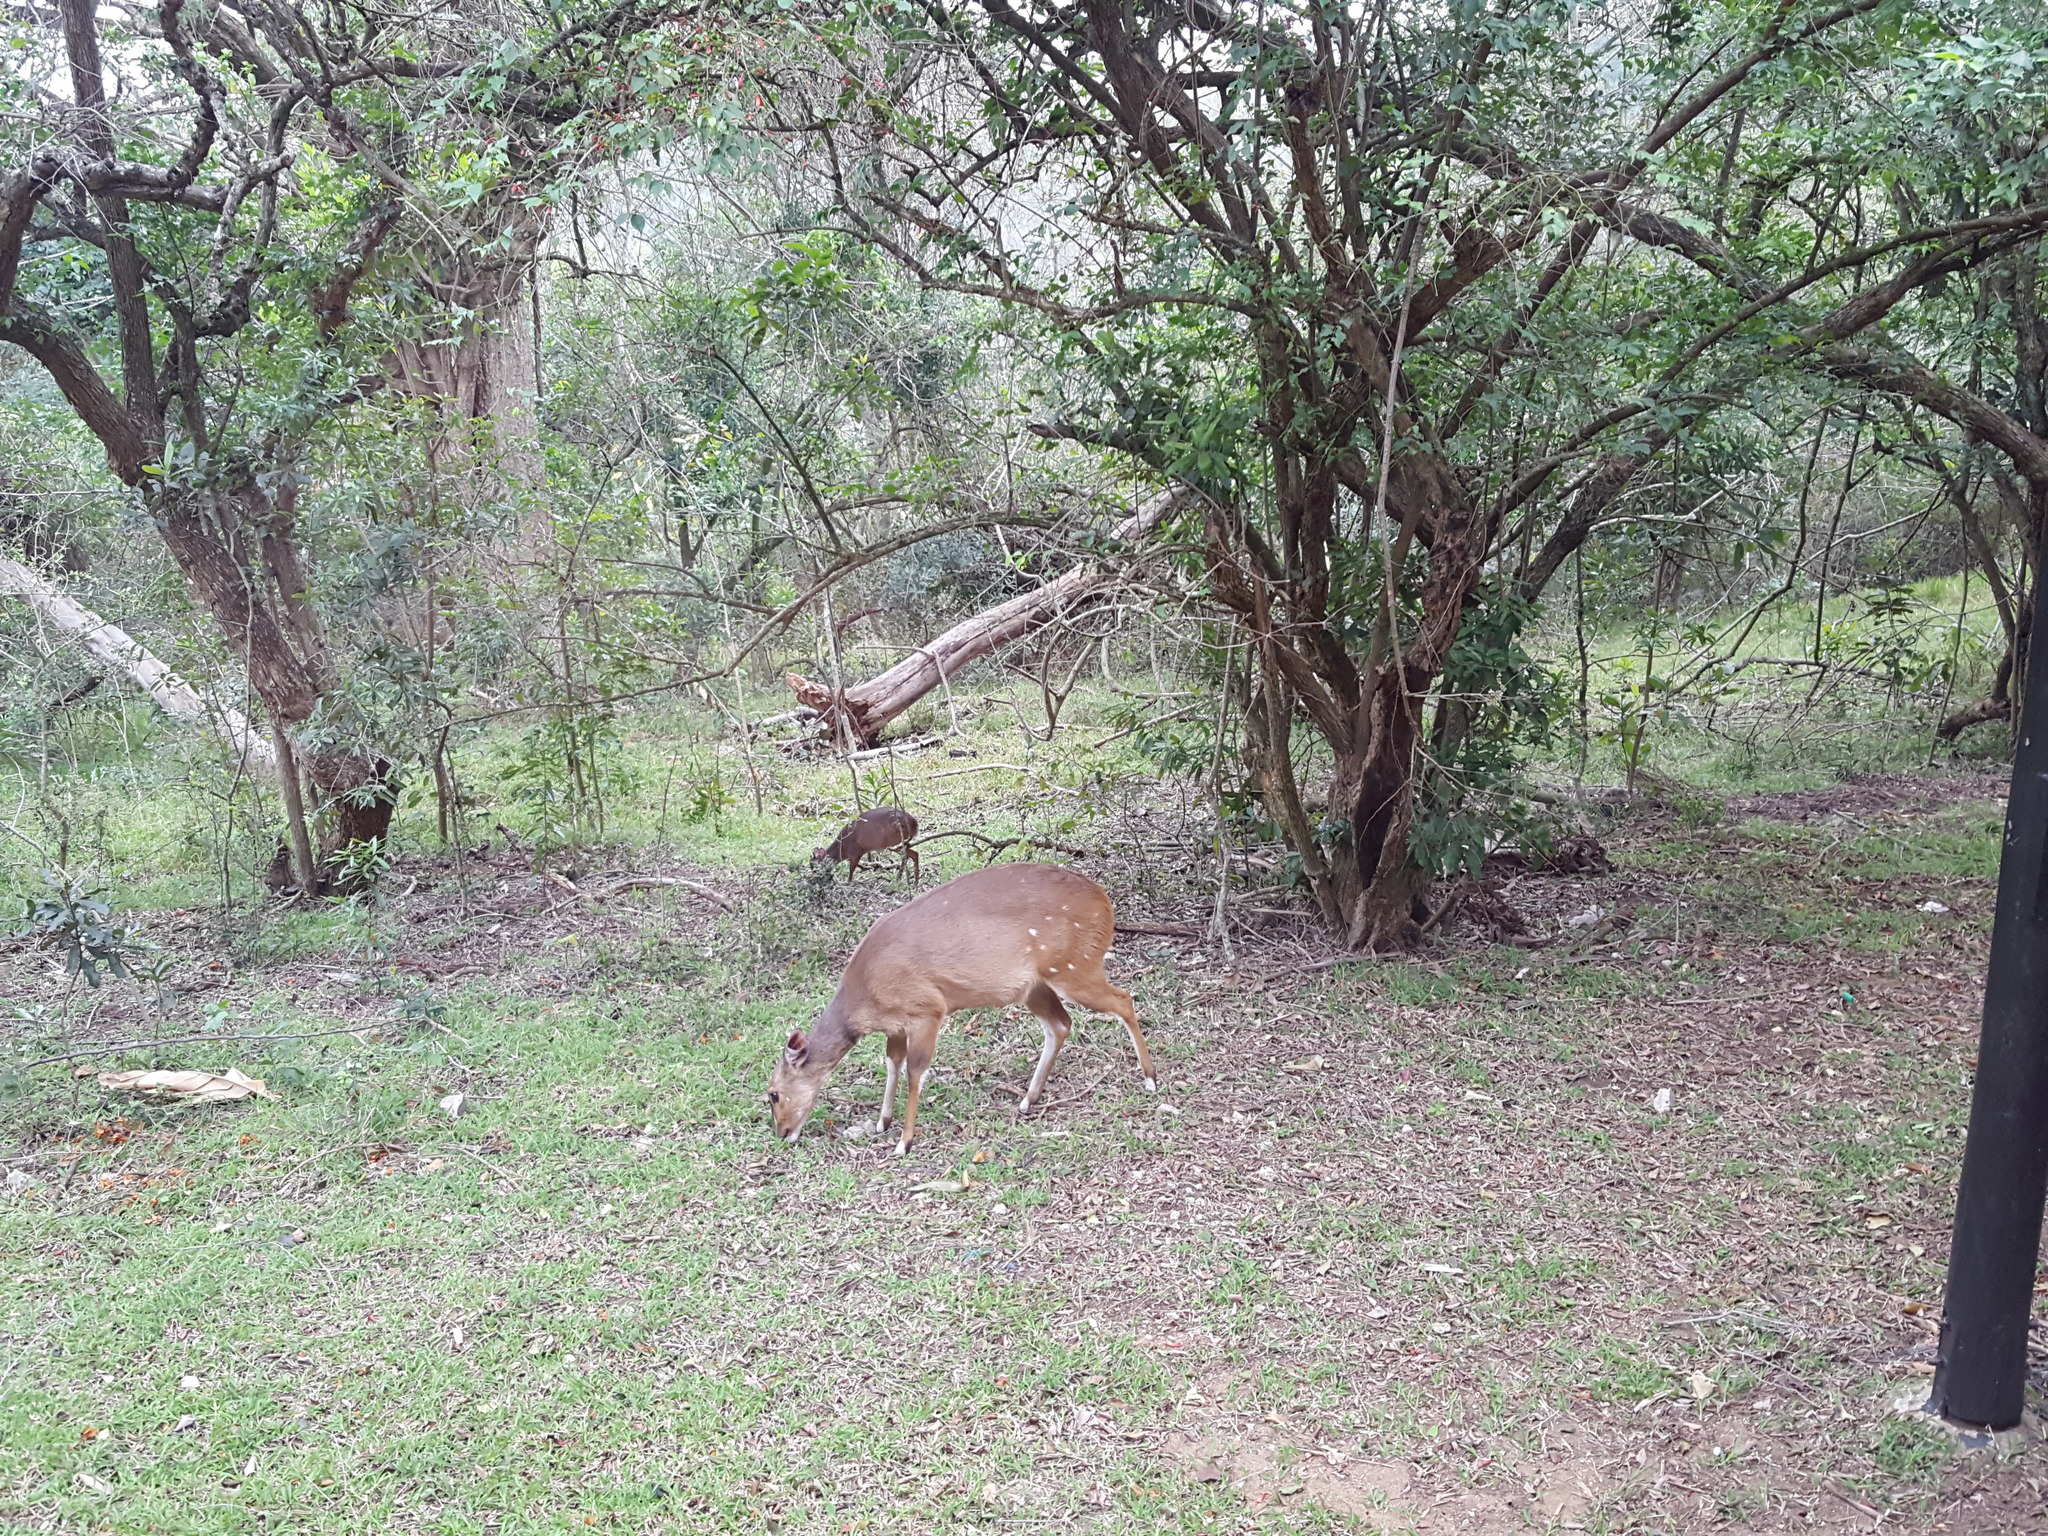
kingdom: Animalia
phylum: Chordata
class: Mammalia
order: Artiodactyla
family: Bovidae
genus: Cephalophus
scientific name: Cephalophus natalensis
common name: Red duiker
